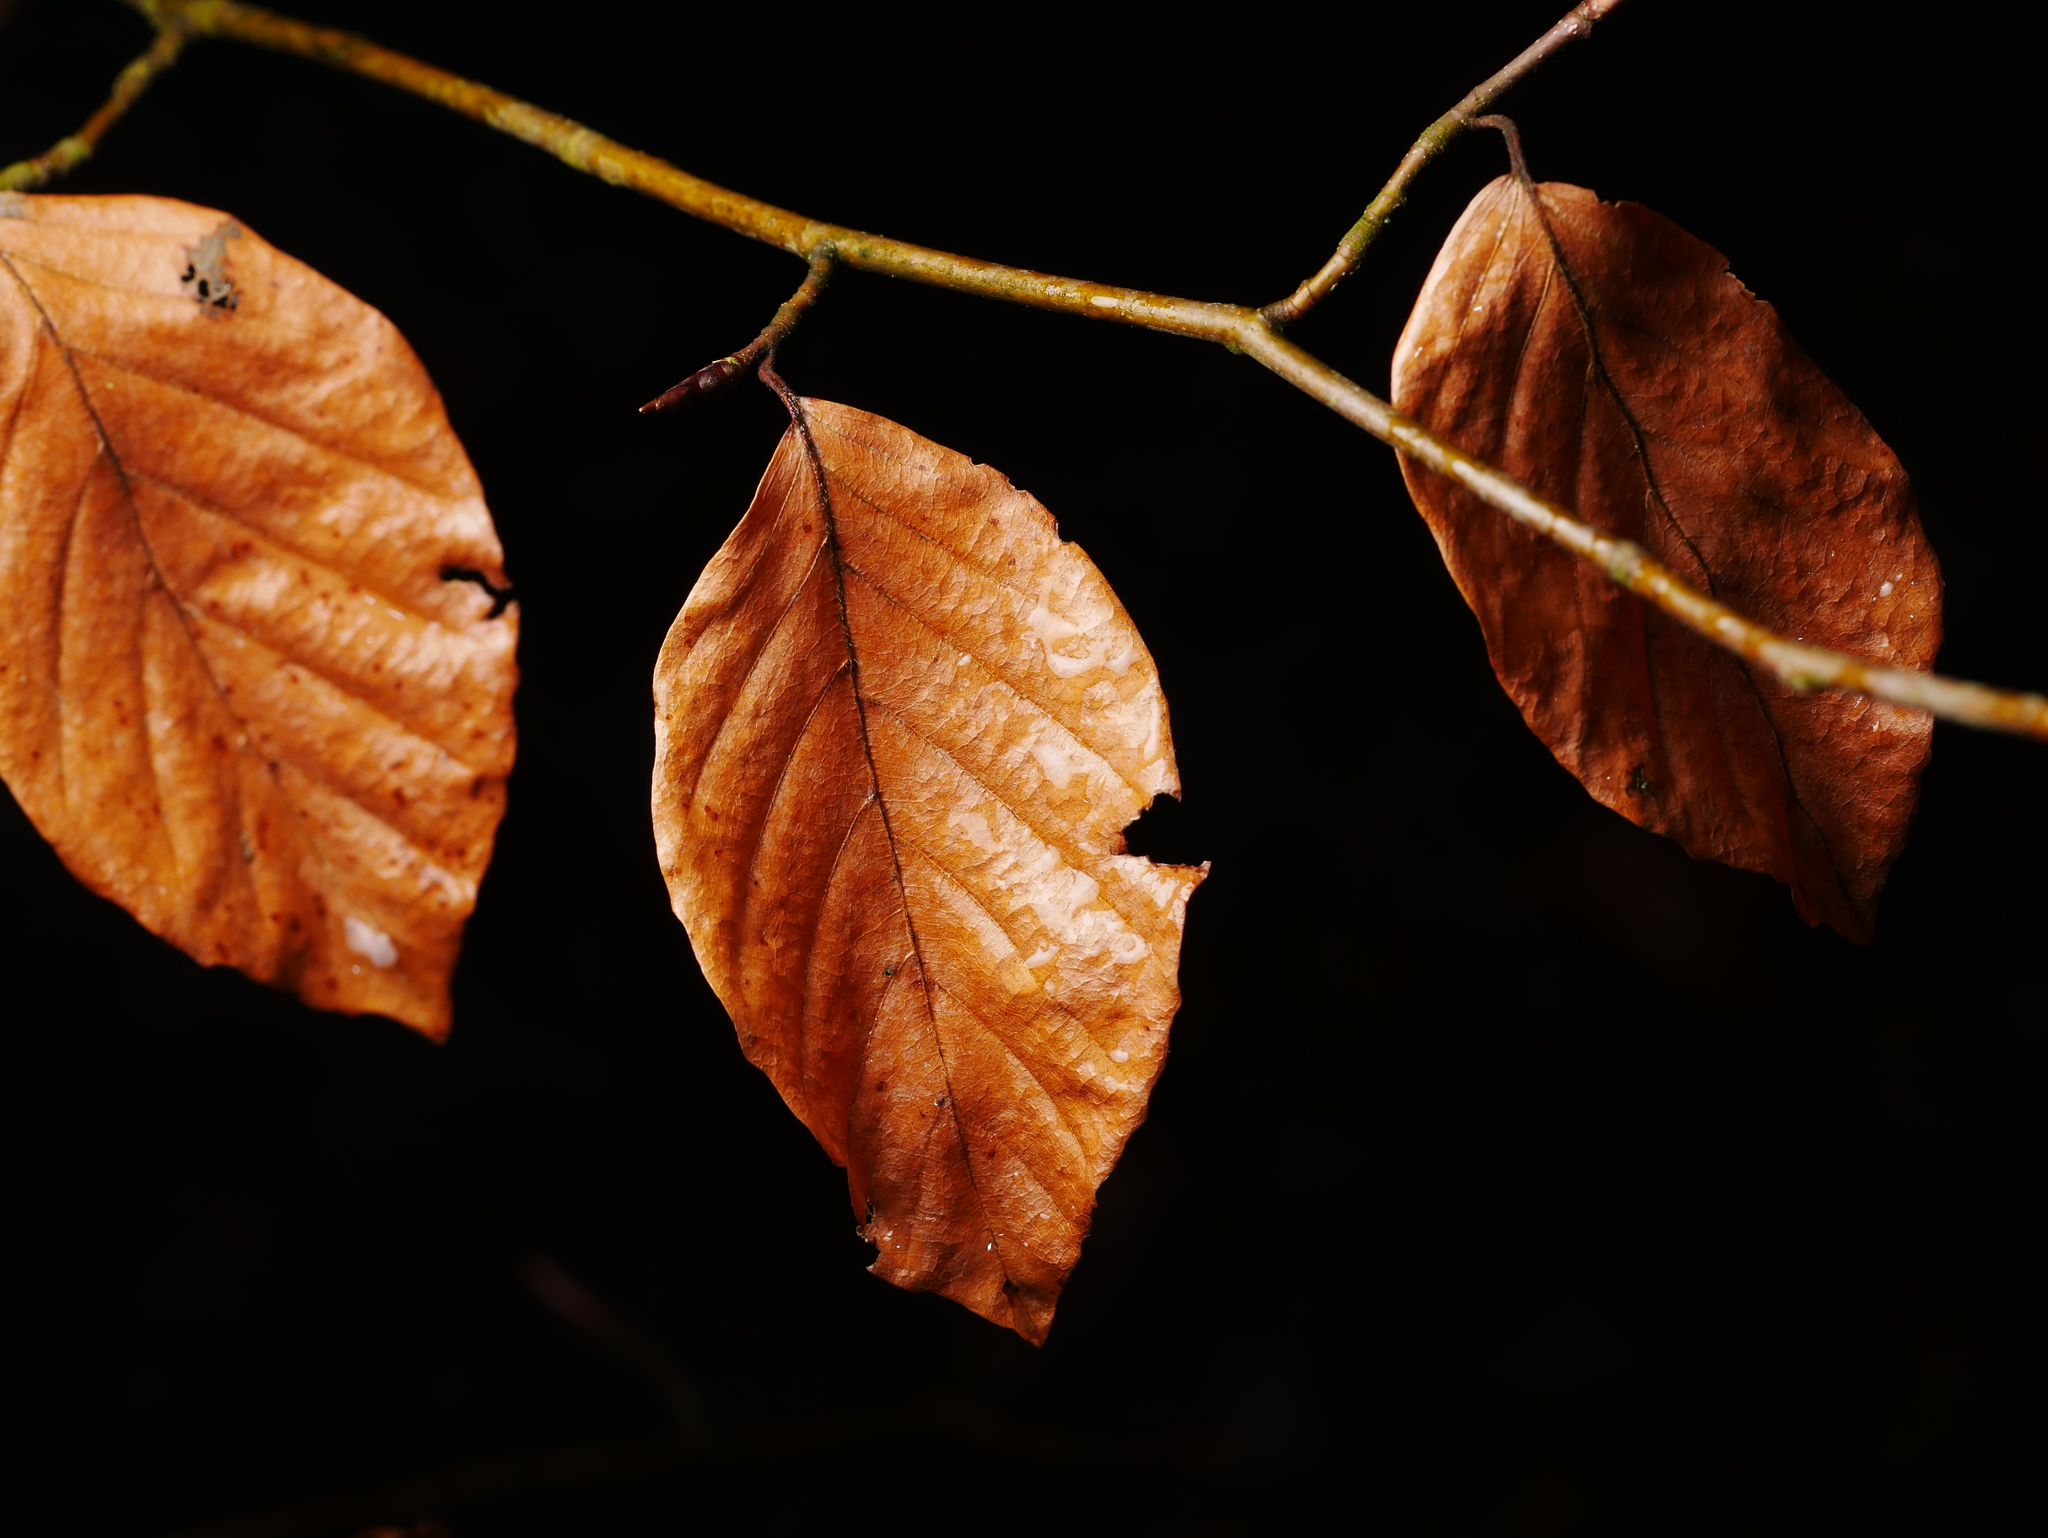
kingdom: Plantae
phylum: Tracheophyta
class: Magnoliopsida
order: Fagales
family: Fagaceae
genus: Fagus
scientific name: Fagus sylvatica
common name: Beech
